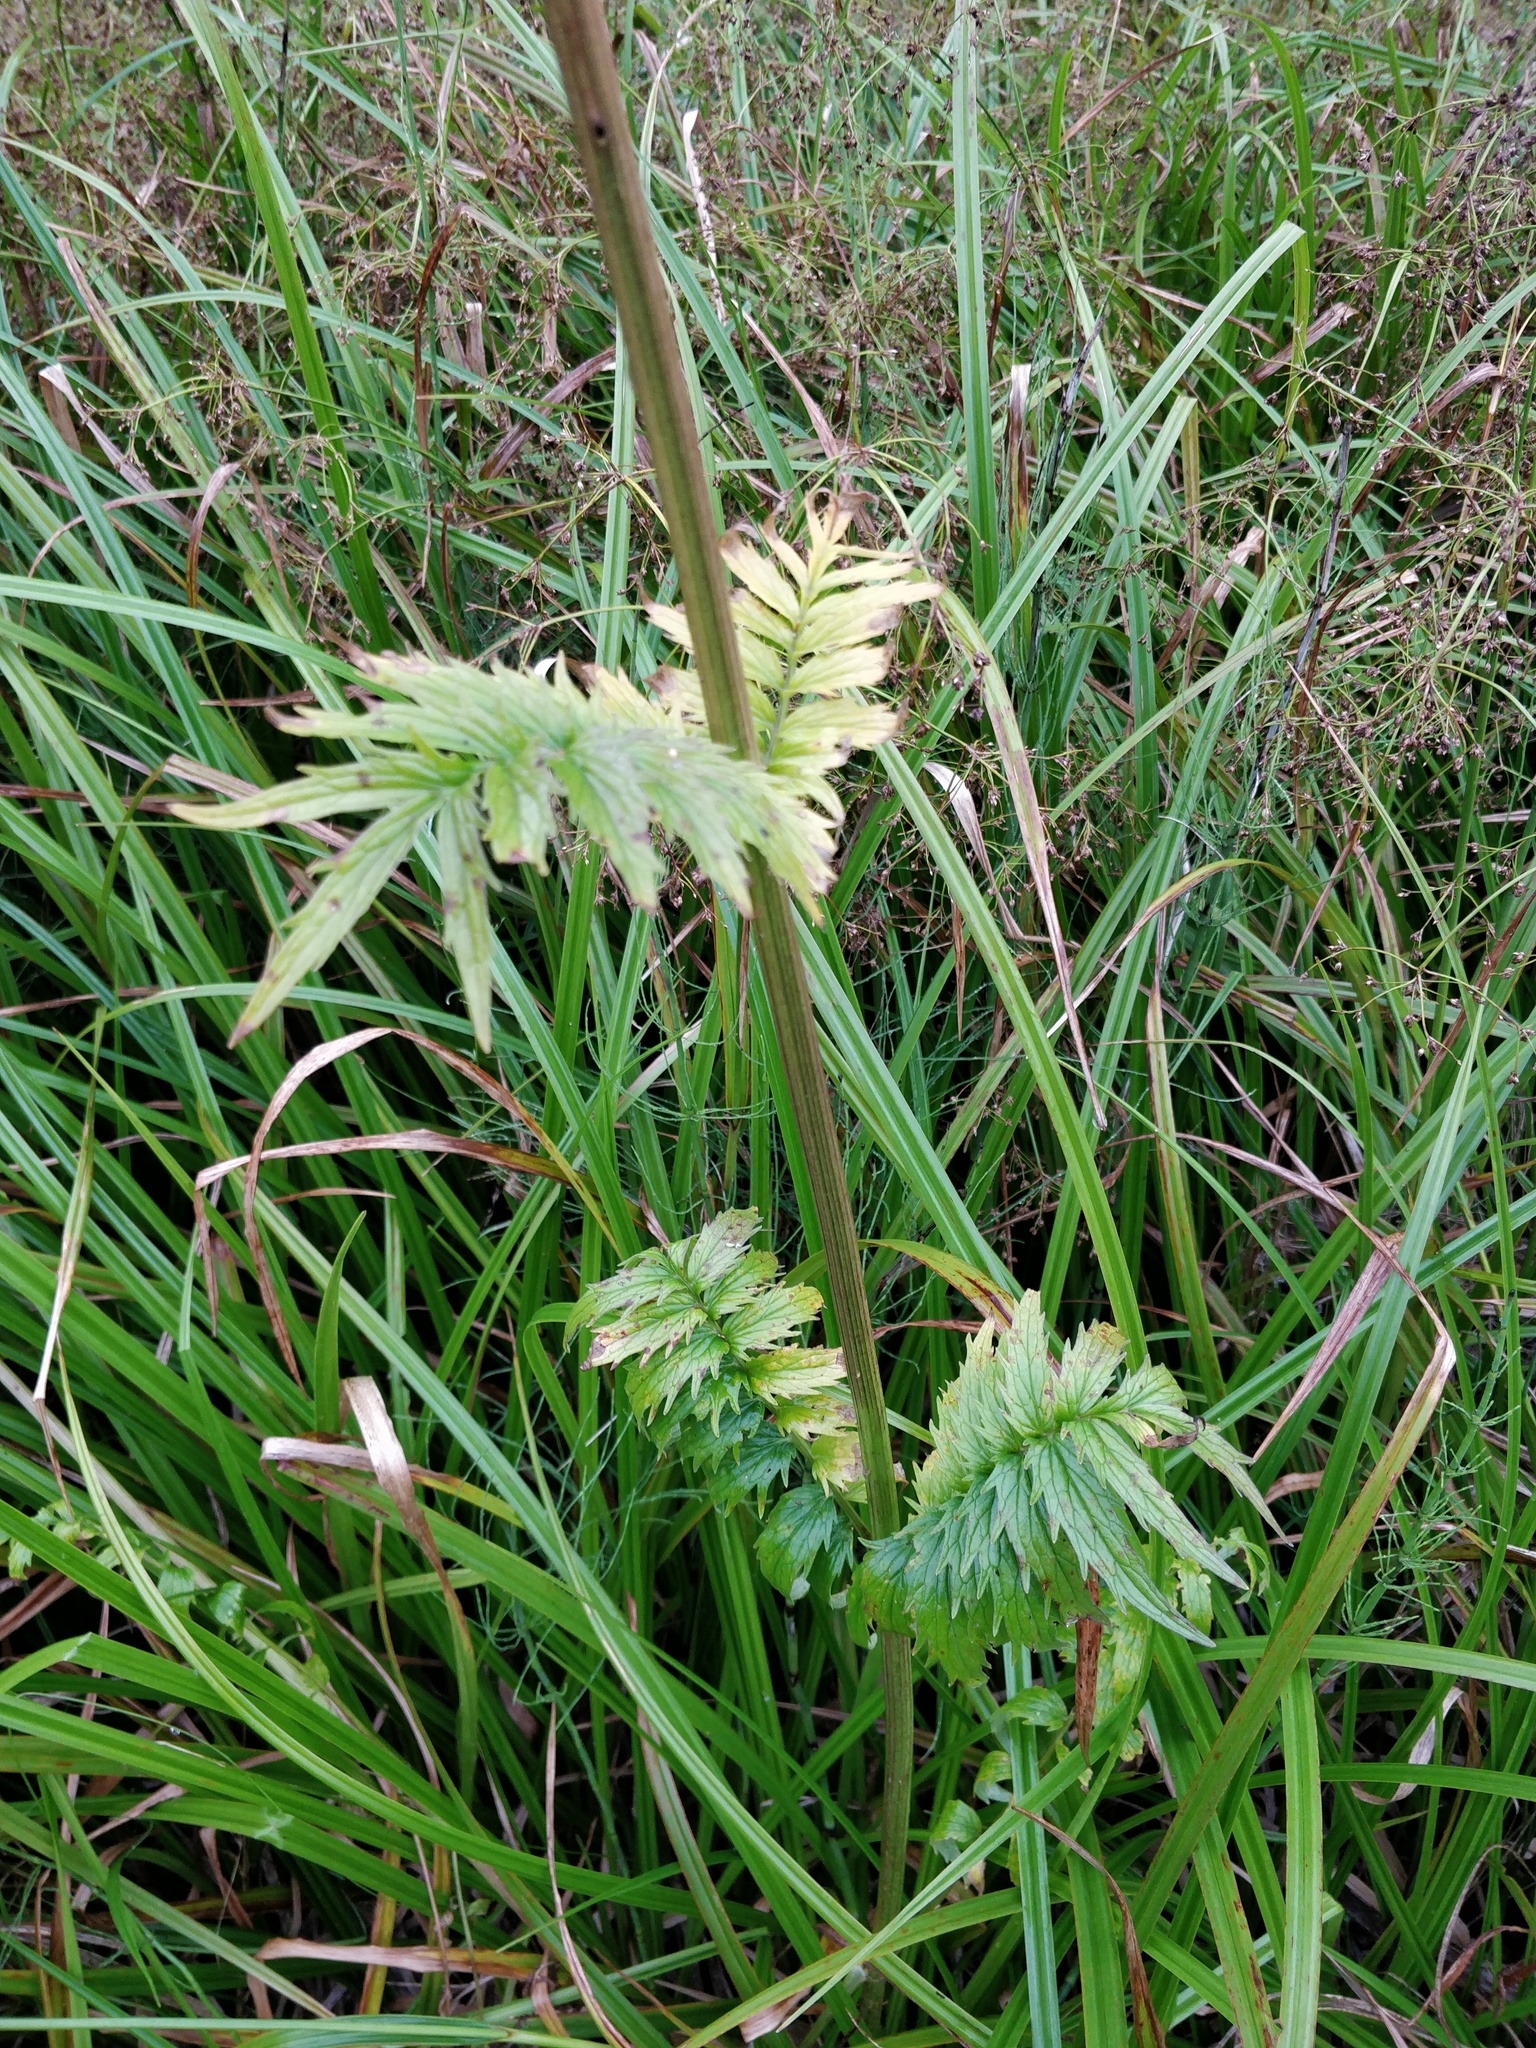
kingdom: Plantae
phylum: Tracheophyta
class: Magnoliopsida
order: Dipsacales
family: Caprifoliaceae
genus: Valeriana
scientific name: Valeriana officinalis
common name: Common valerian
